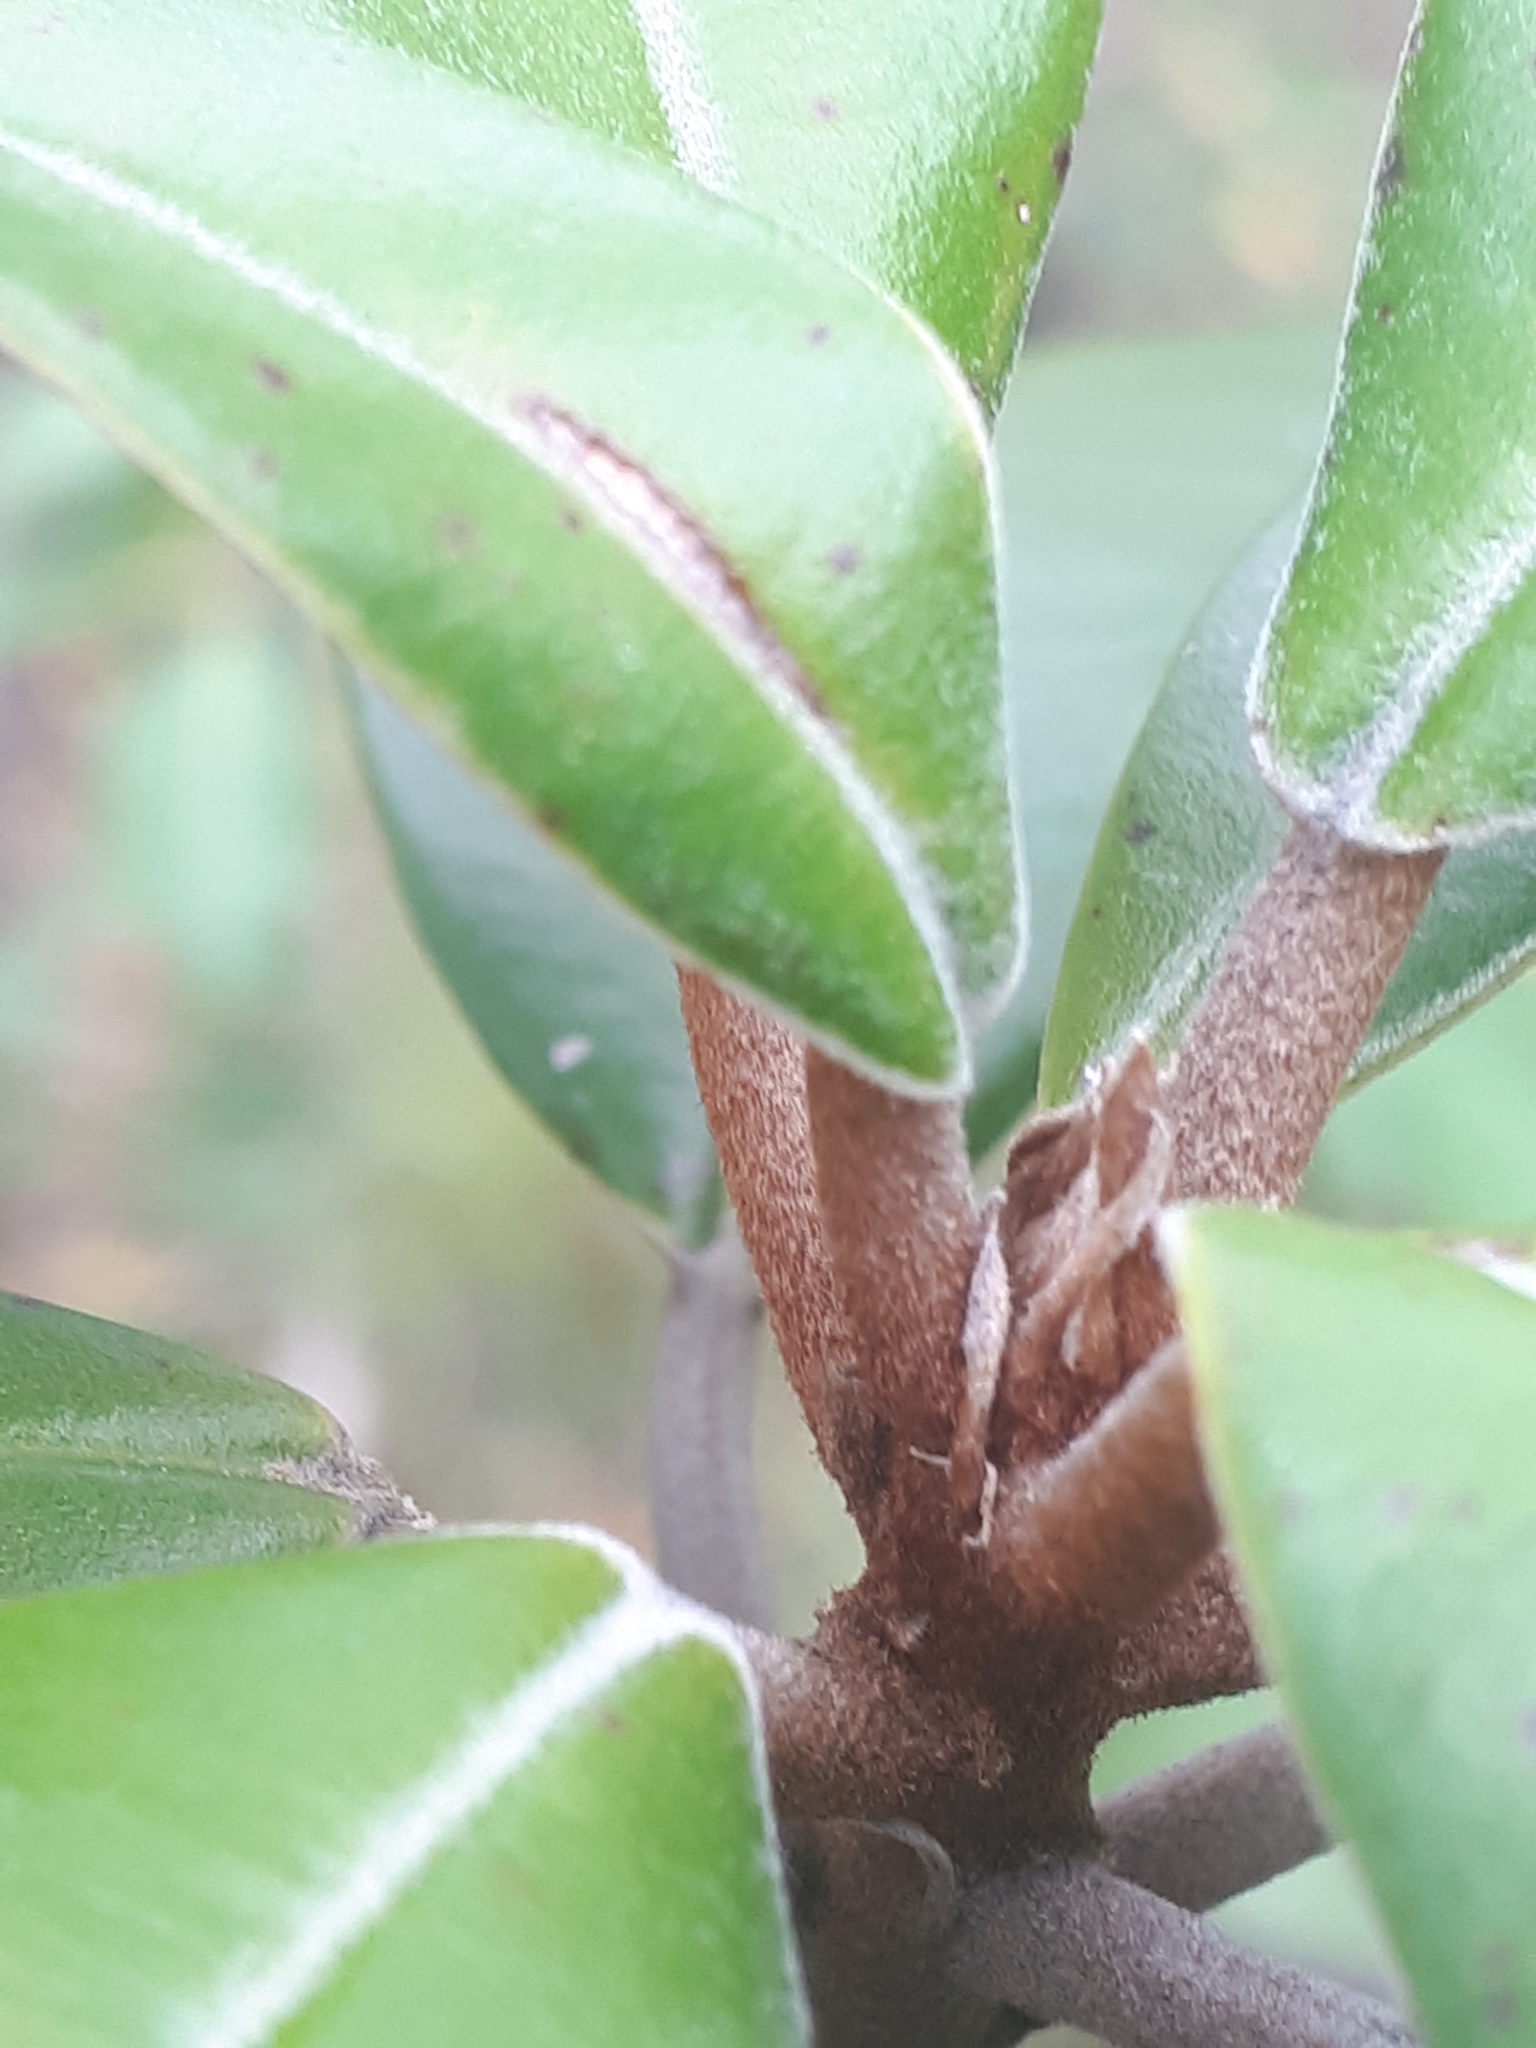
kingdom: Plantae
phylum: Tracheophyta
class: Magnoliopsida
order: Ericales
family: Sapotaceae
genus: Englerophytum
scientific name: Englerophytum magalismontanum
